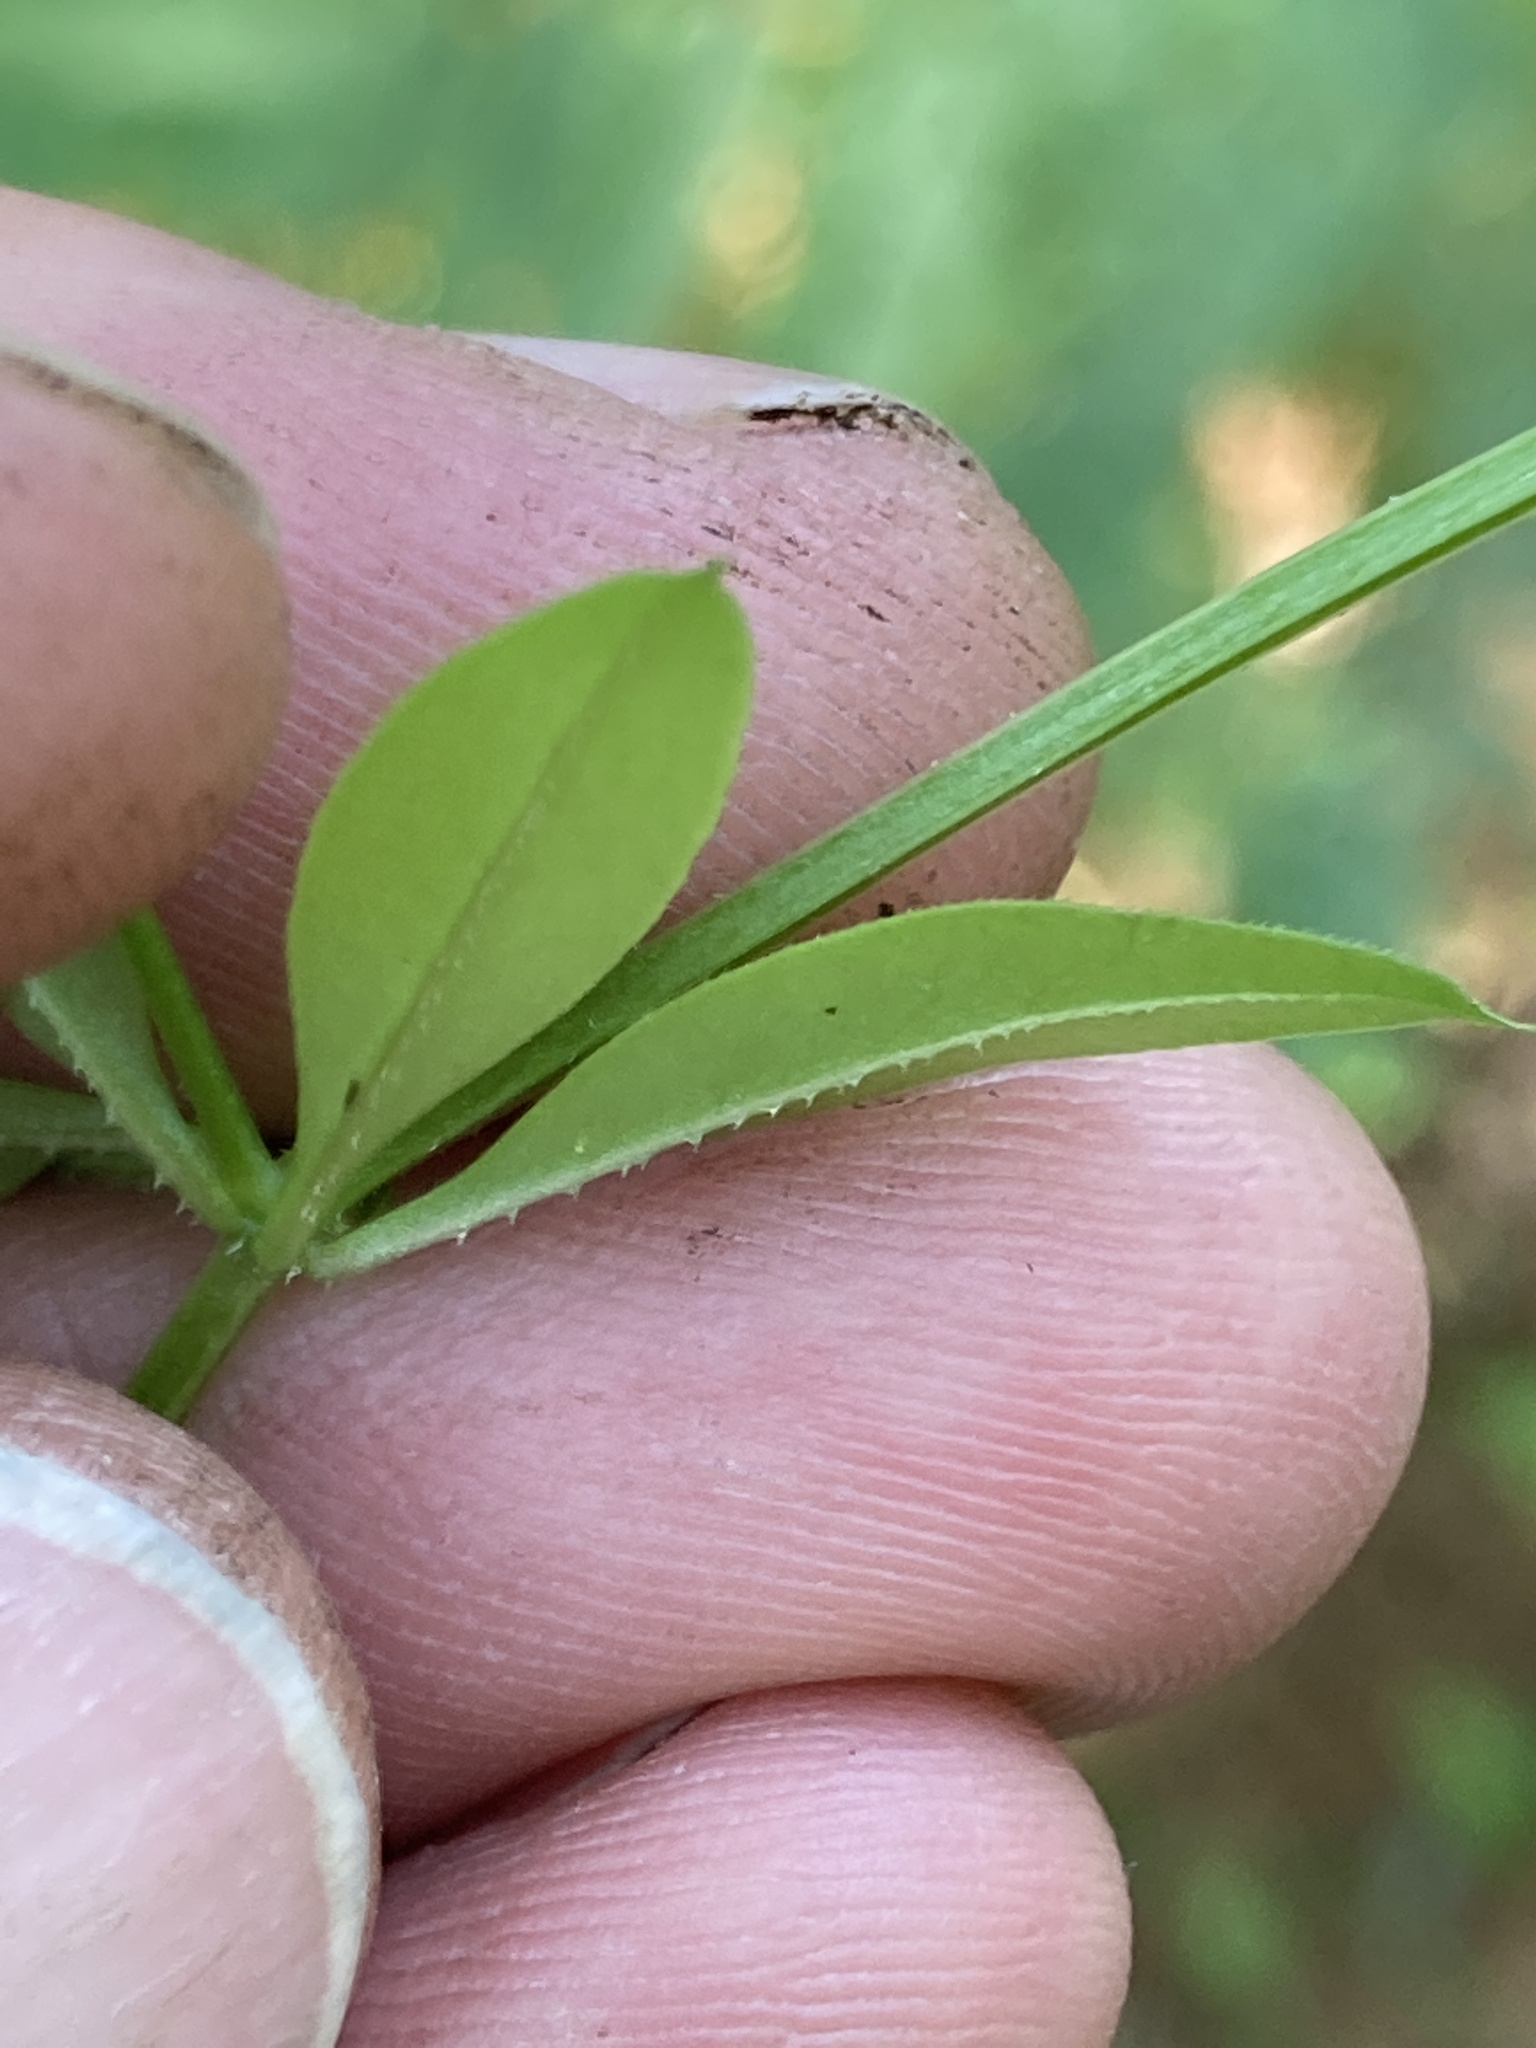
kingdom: Plantae
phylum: Tracheophyta
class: Magnoliopsida
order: Gentianales
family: Rubiaceae
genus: Galium
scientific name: Galium triflorum
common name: Fragrant bedstraw
